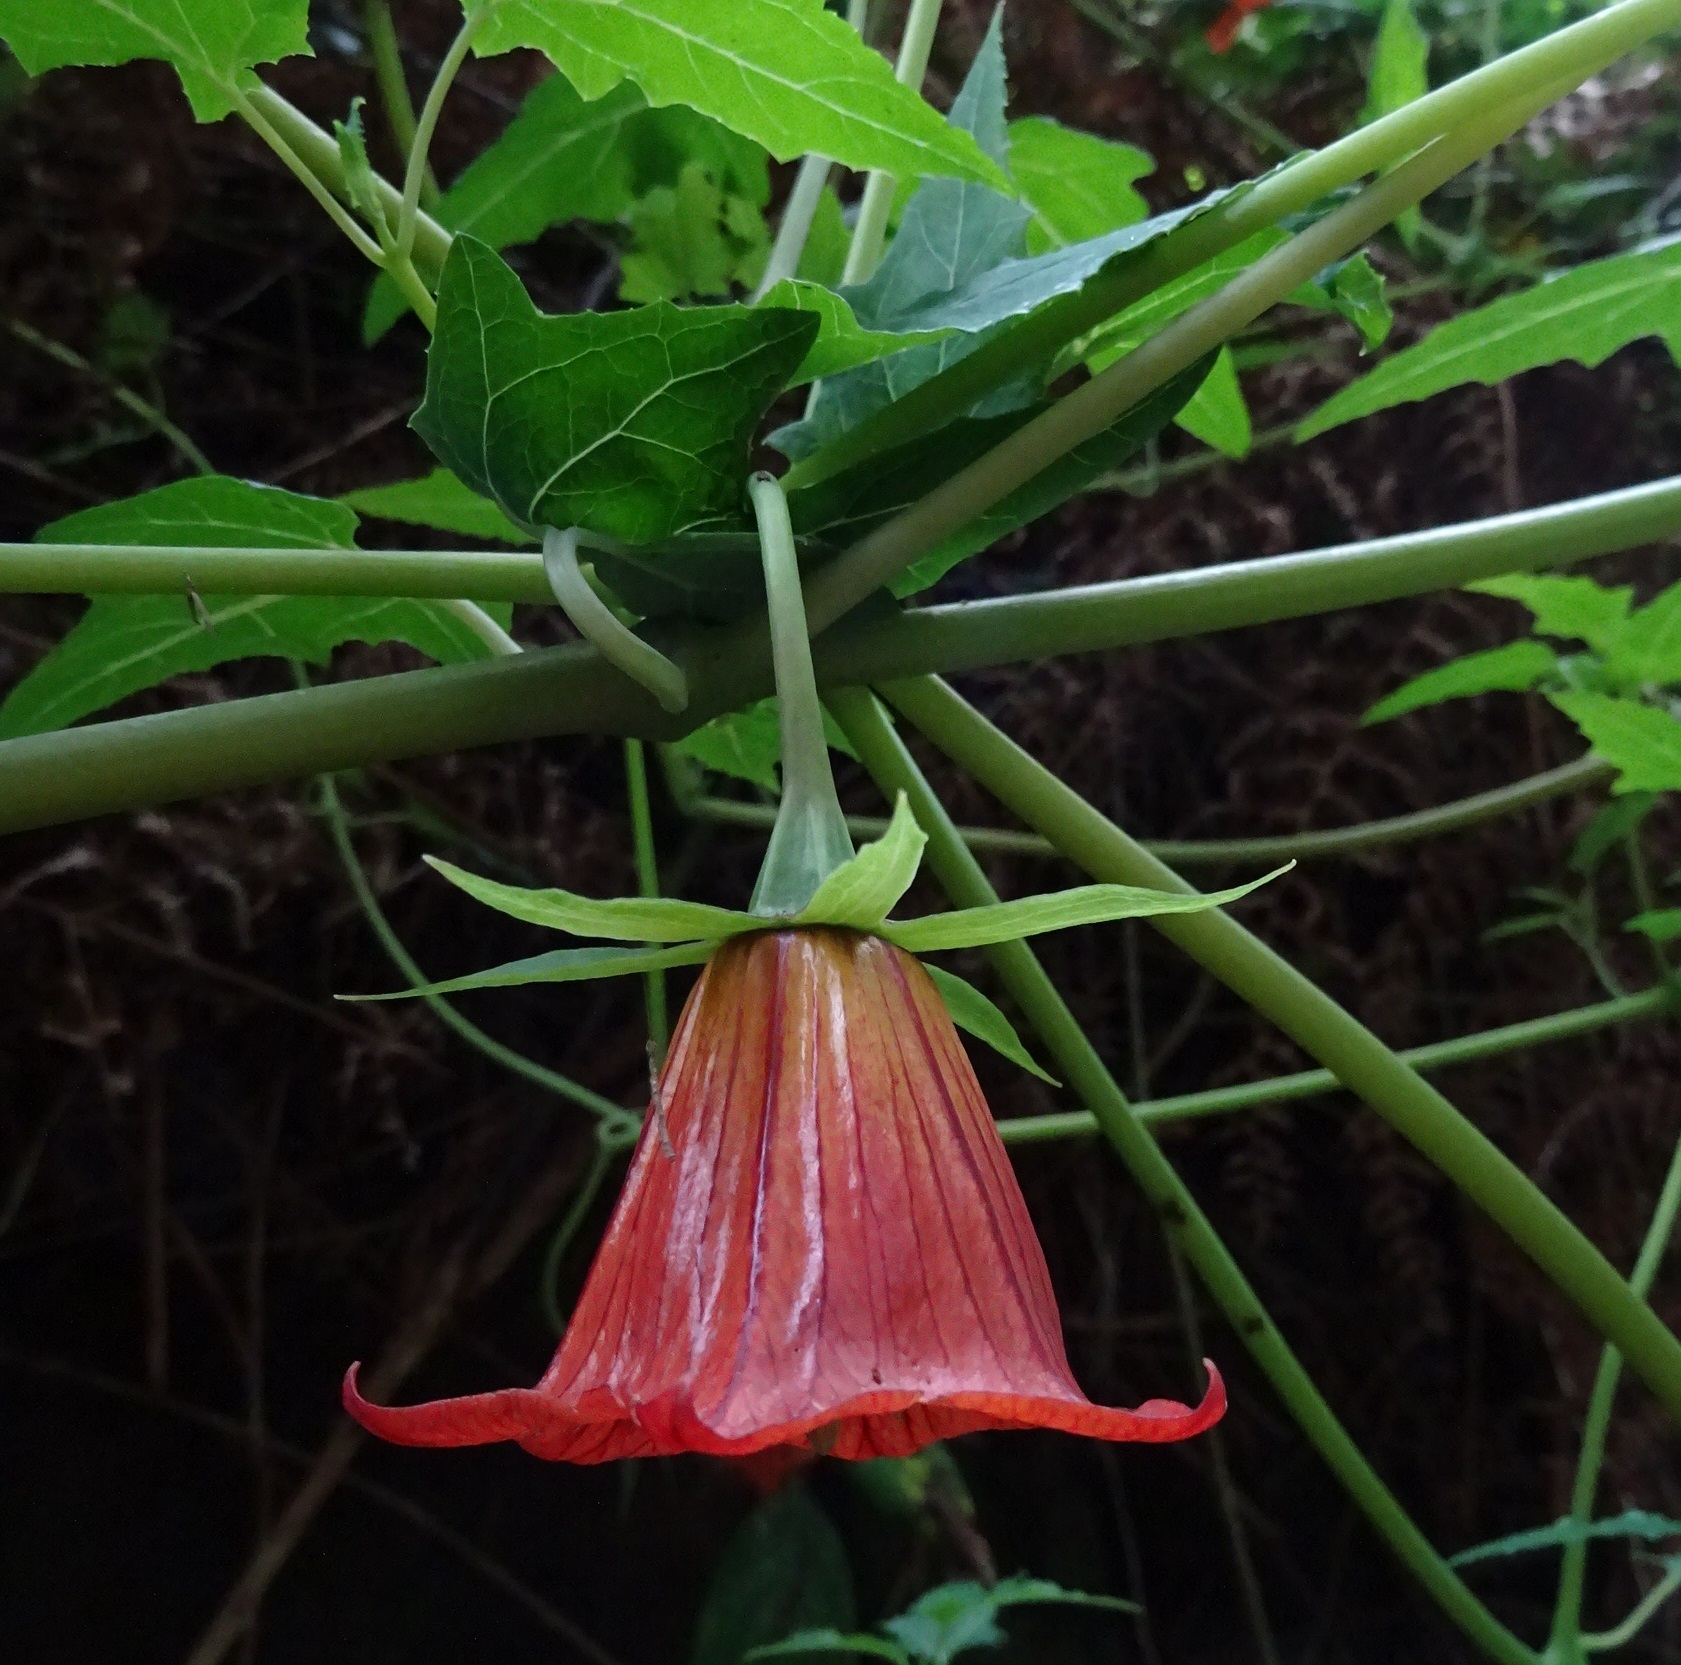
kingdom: Plantae
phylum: Tracheophyta
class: Magnoliopsida
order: Asterales
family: Campanulaceae
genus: Canarina
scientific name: Canarina canariensis
